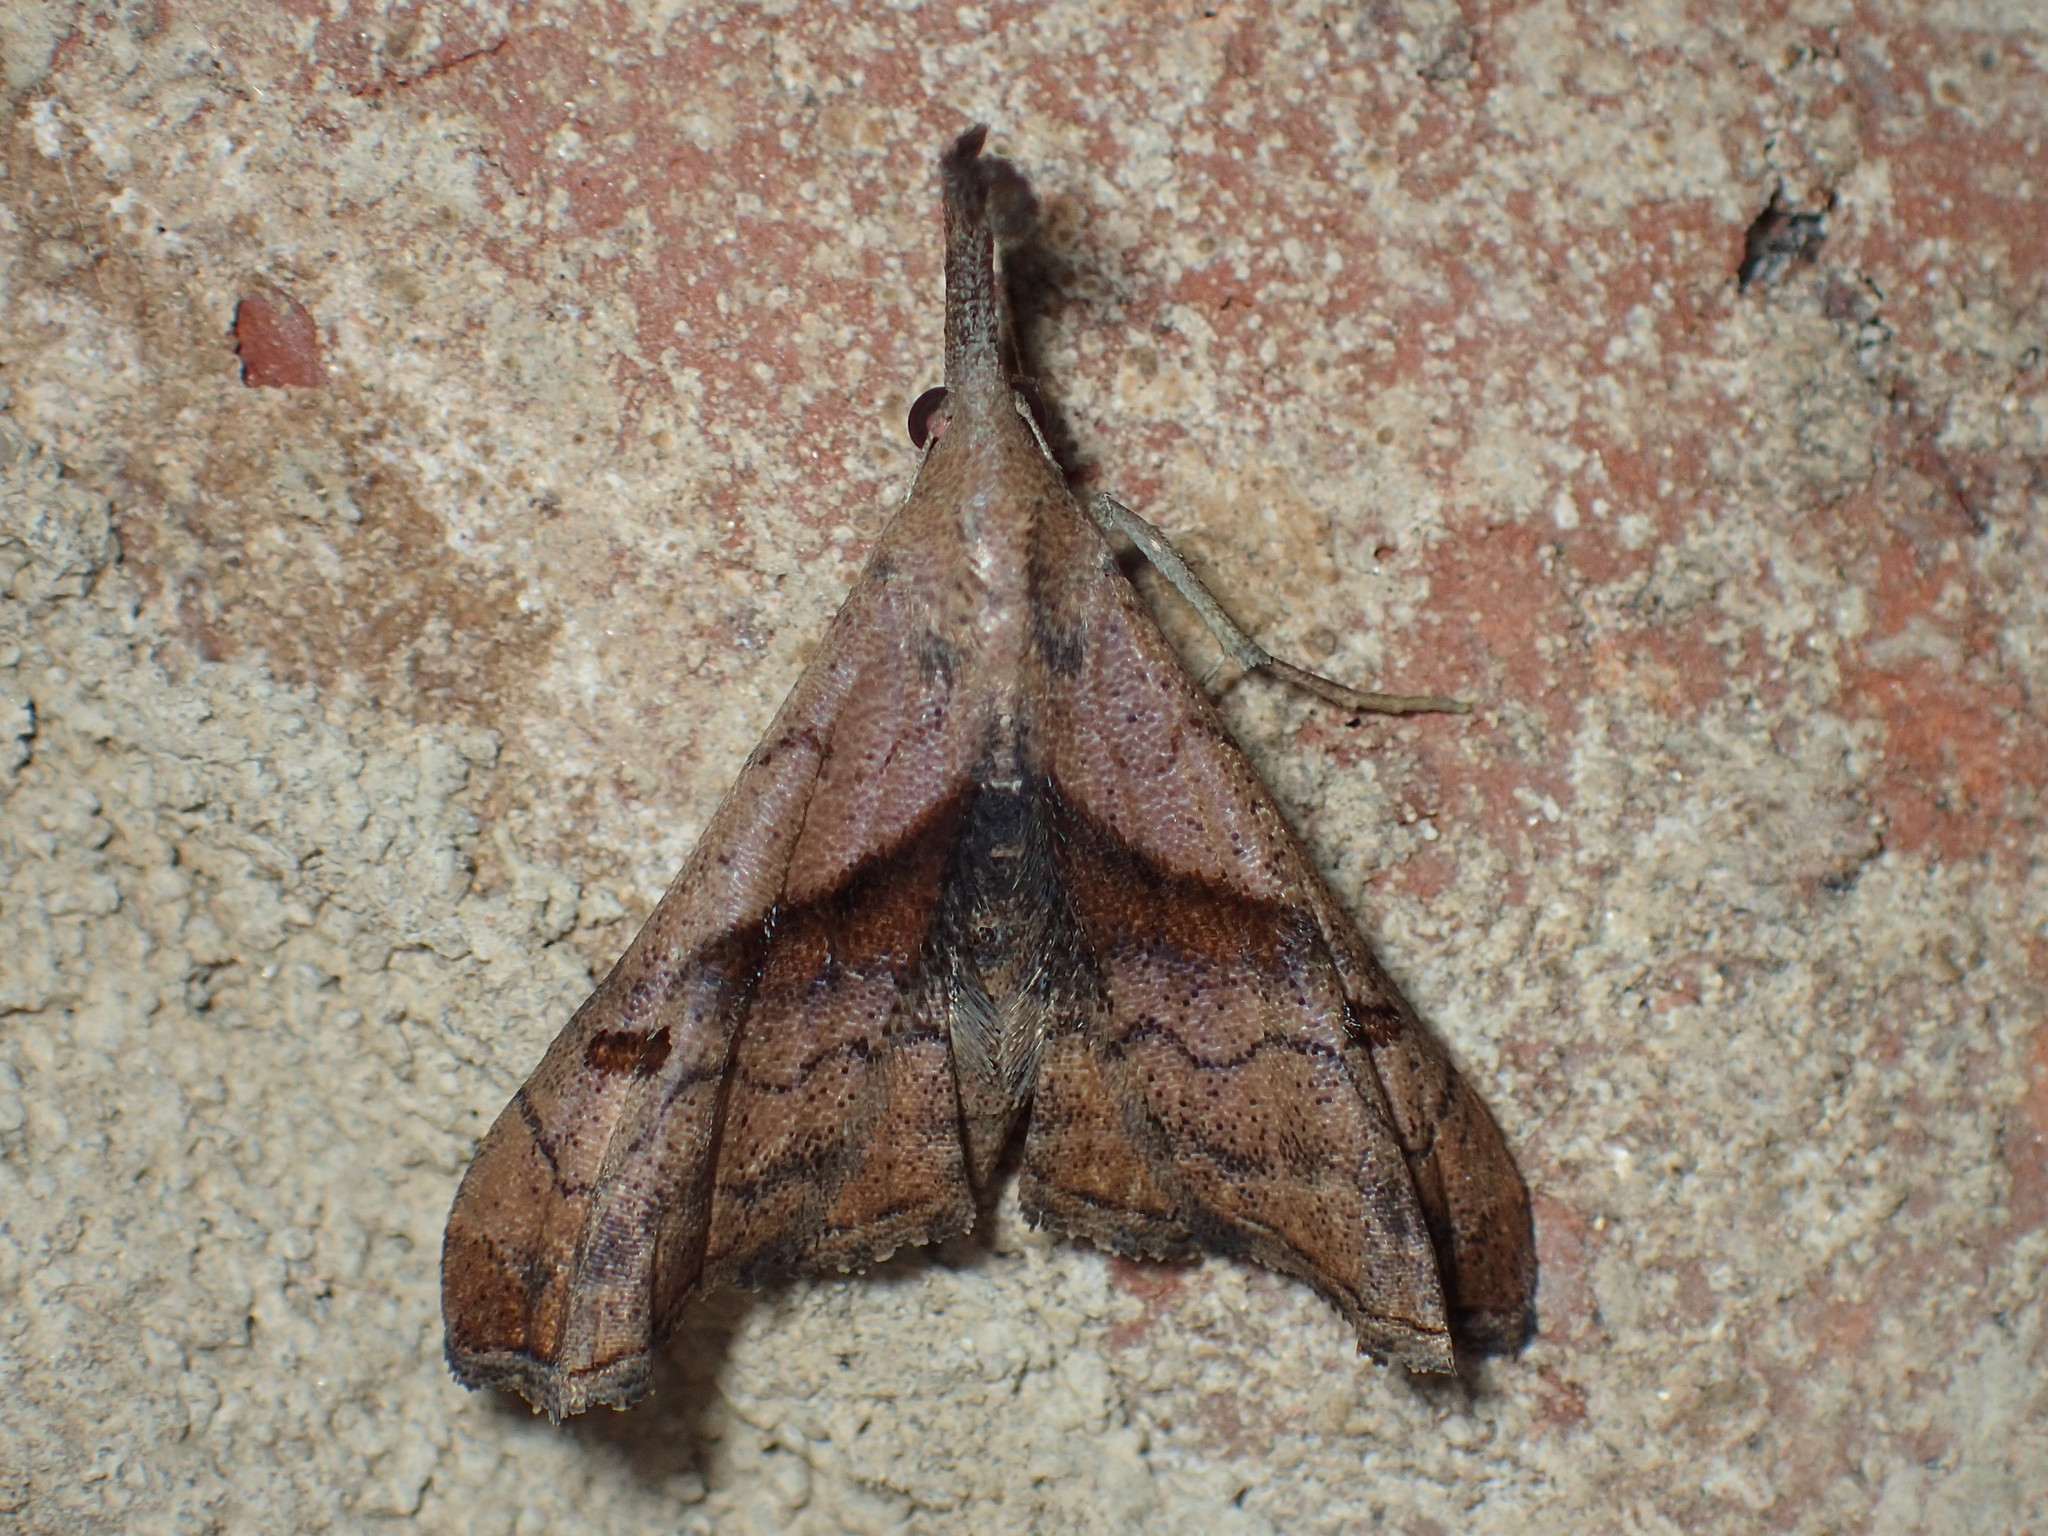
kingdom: Animalia
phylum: Arthropoda
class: Insecta
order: Lepidoptera
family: Erebidae
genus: Palthis
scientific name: Palthis angulalis
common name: Dark-spotted palthis moth
